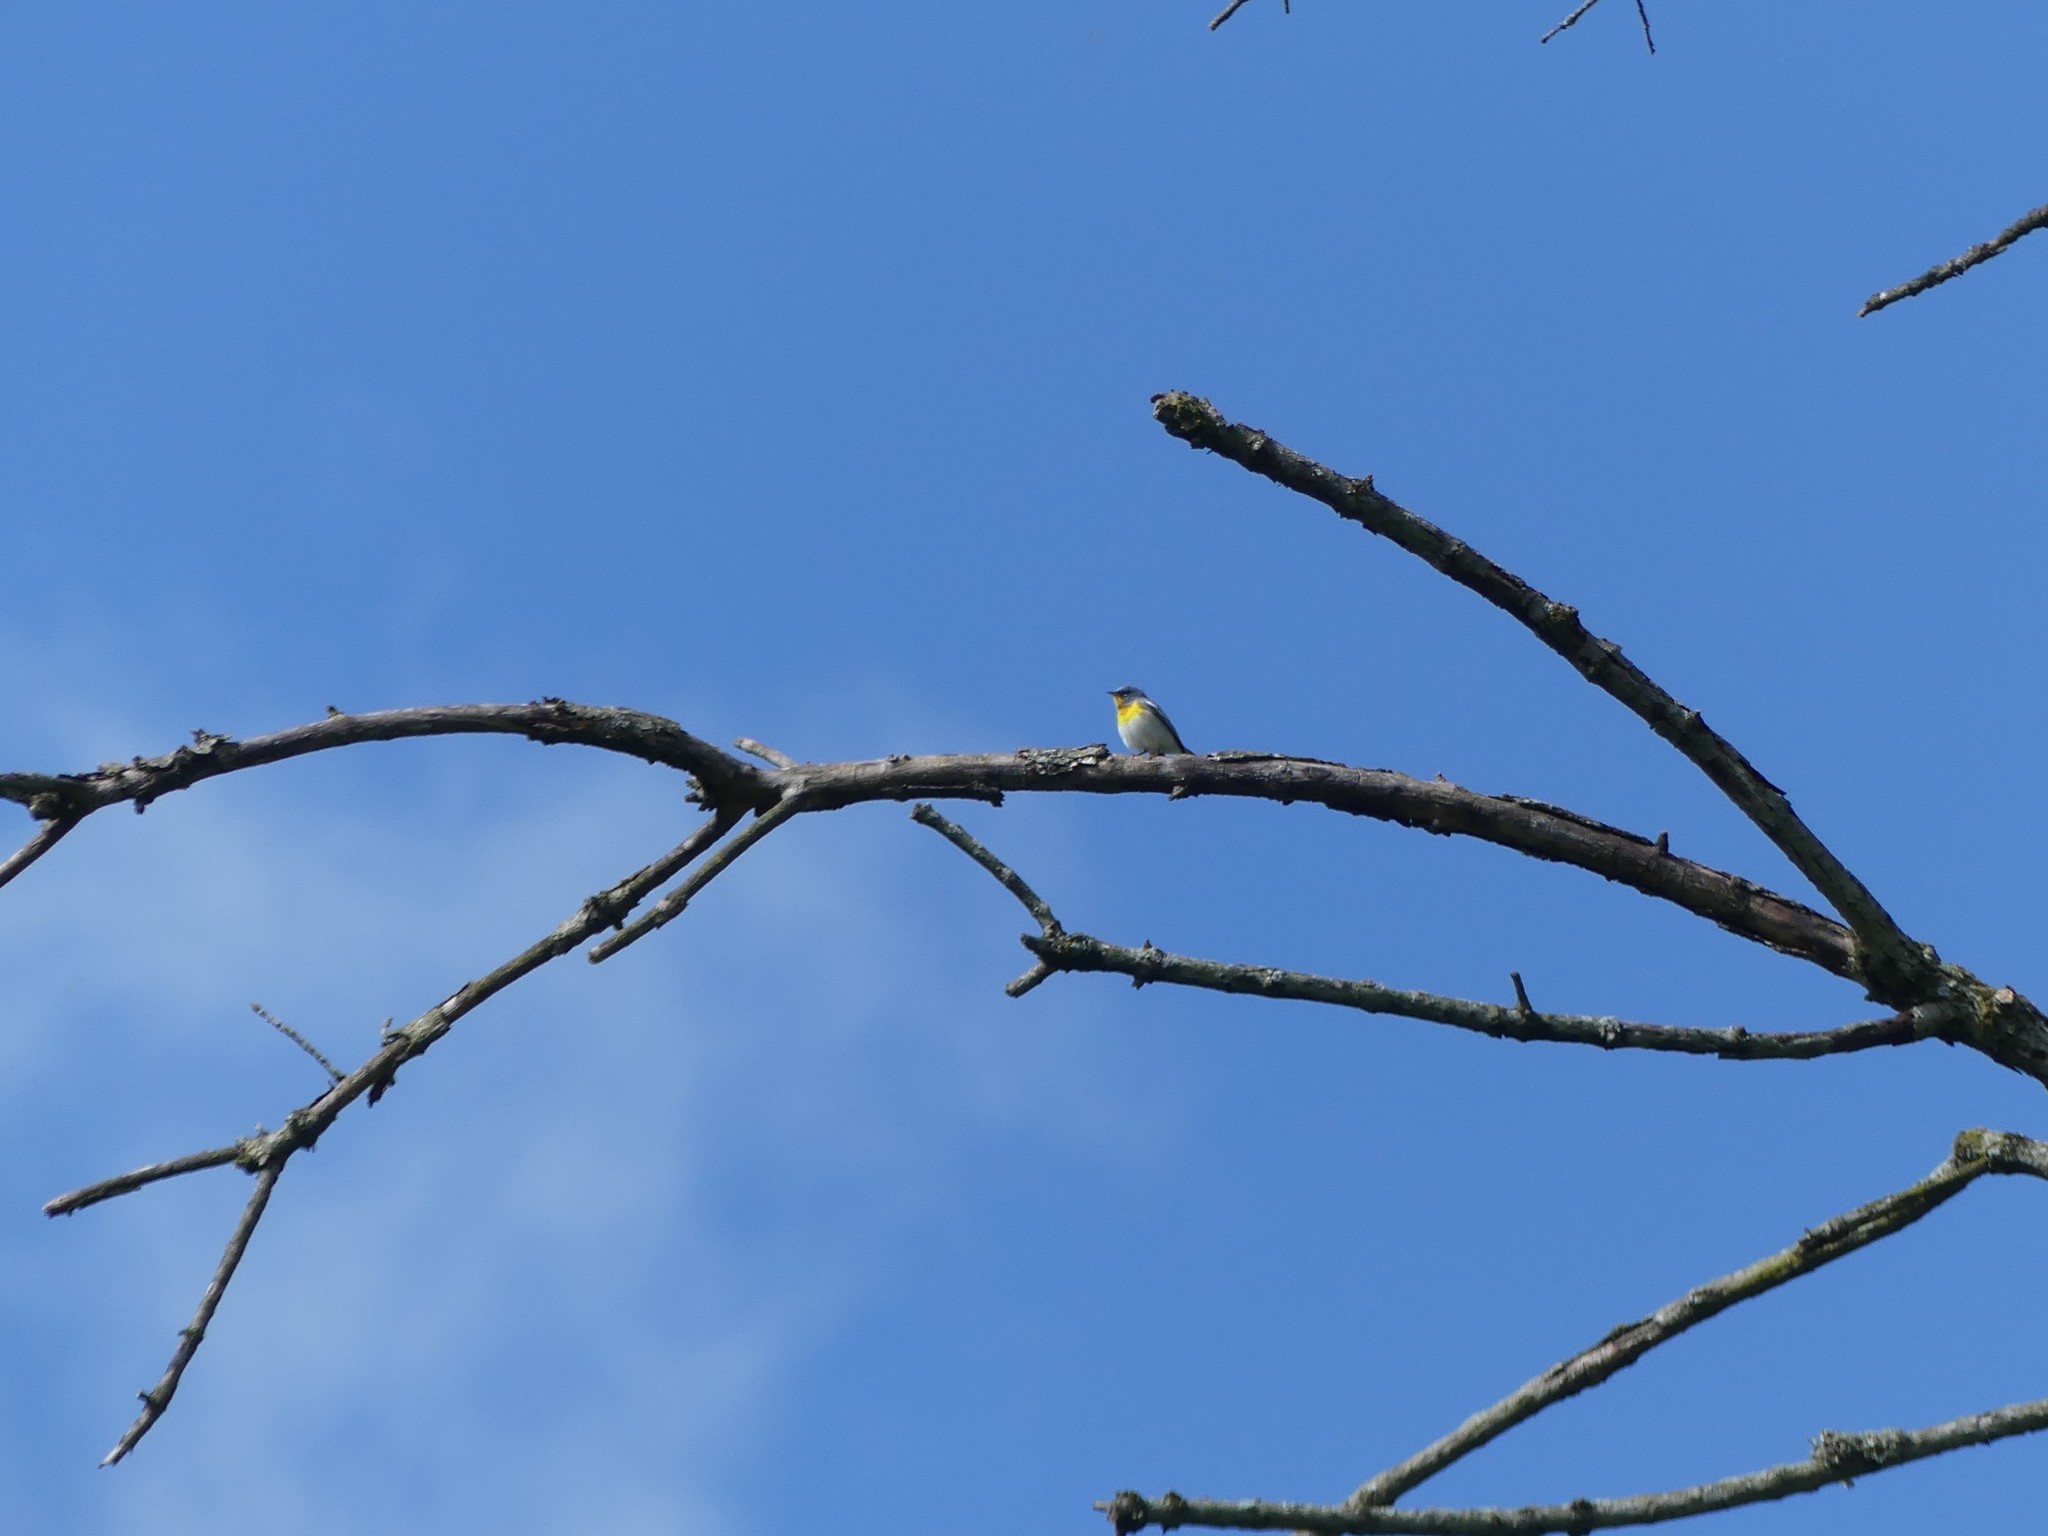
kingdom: Animalia
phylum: Chordata
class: Aves
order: Passeriformes
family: Parulidae
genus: Setophaga
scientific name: Setophaga americana
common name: Northern parula
